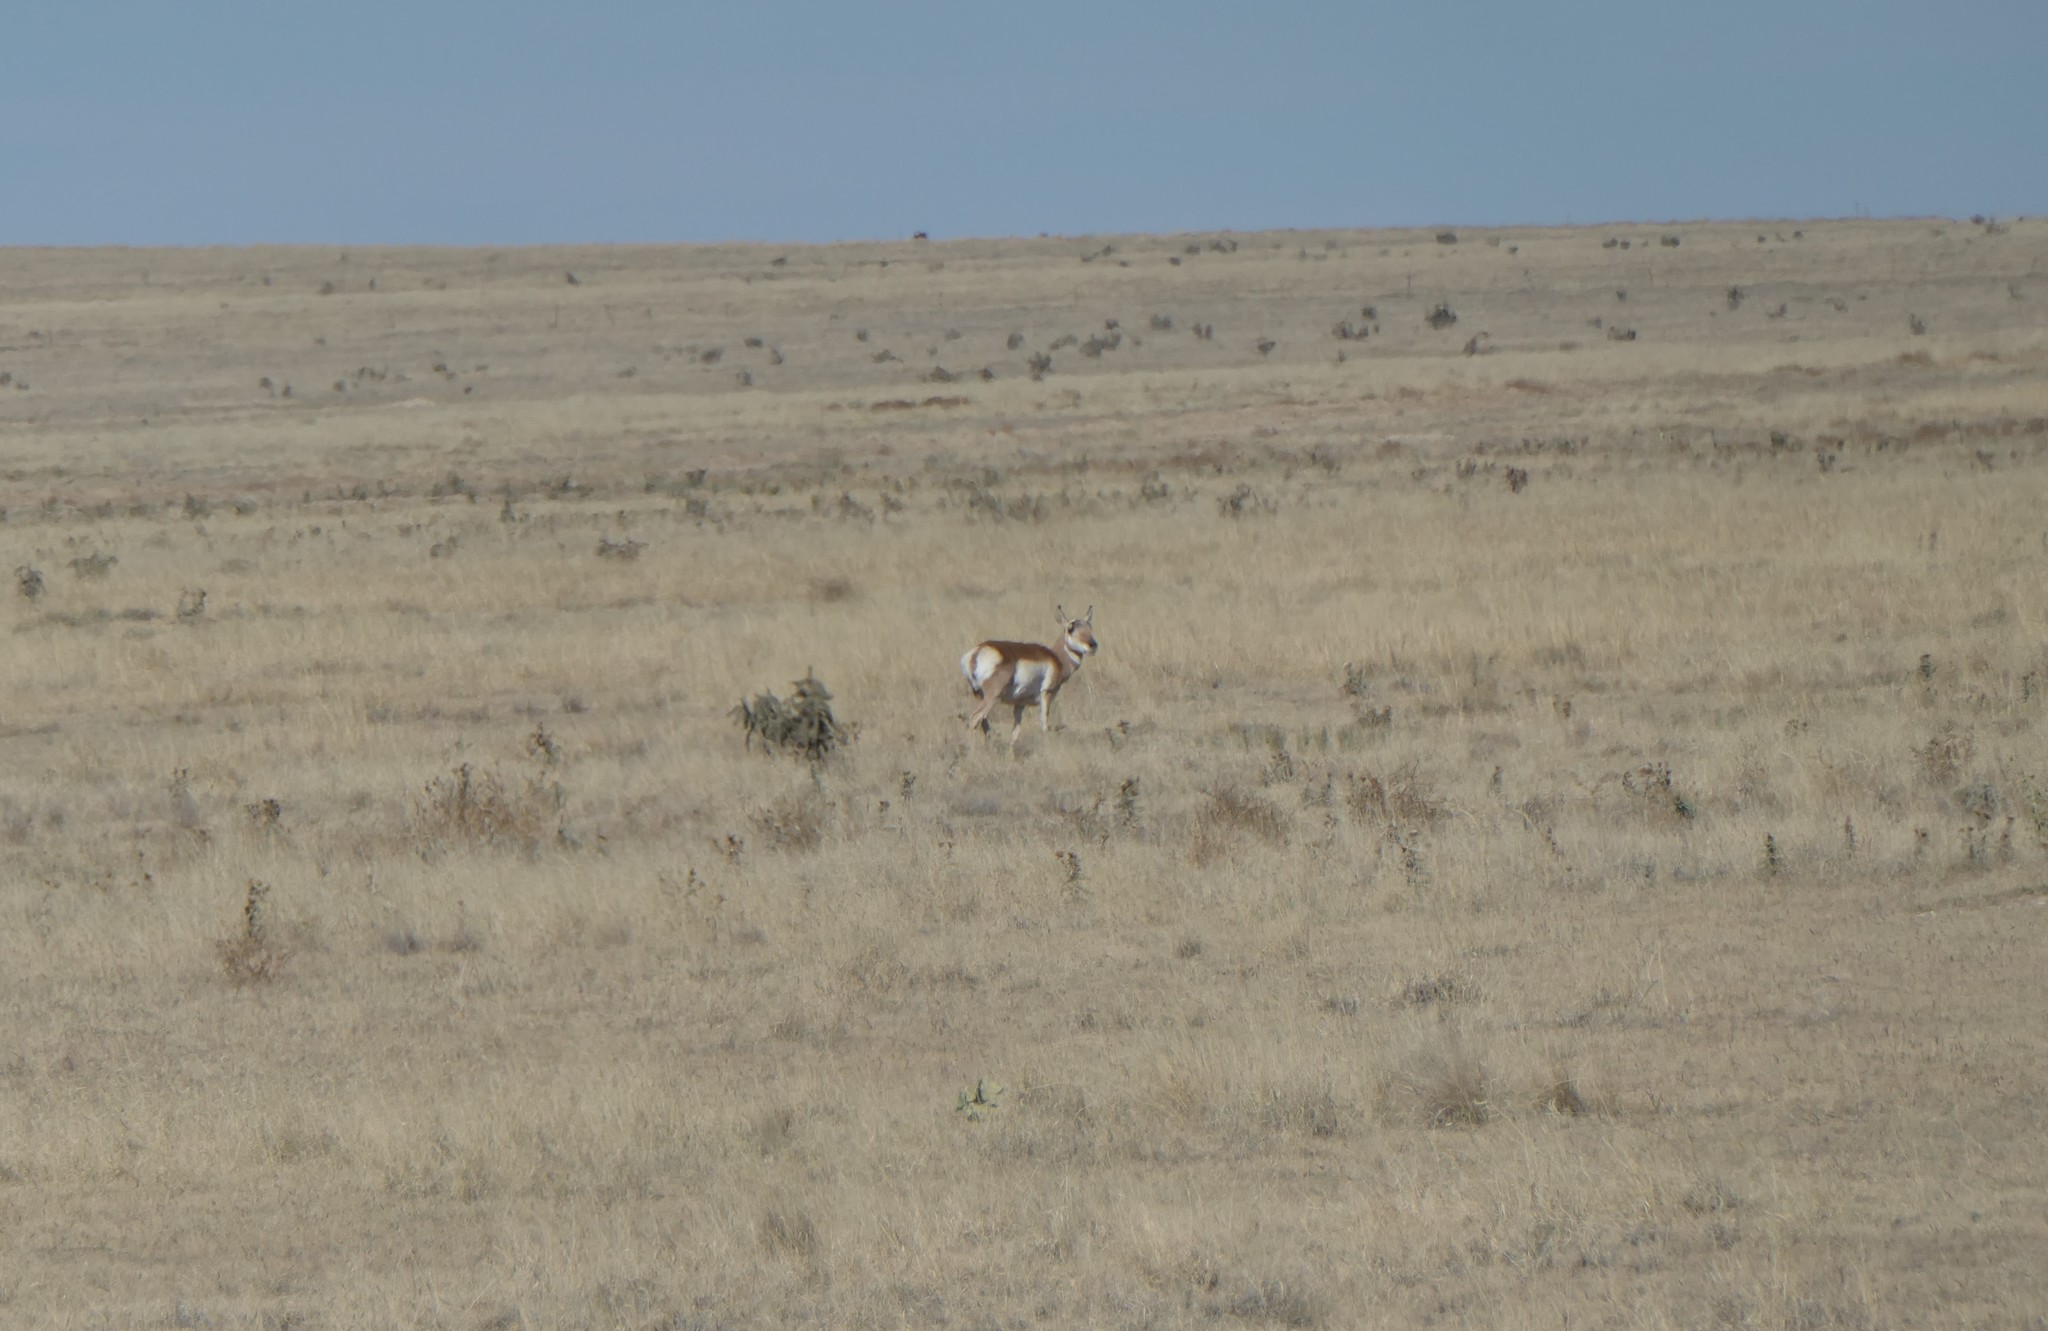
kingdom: Animalia
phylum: Chordata
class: Mammalia
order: Artiodactyla
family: Antilocapridae
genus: Antilocapra
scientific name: Antilocapra americana
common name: Pronghorn
